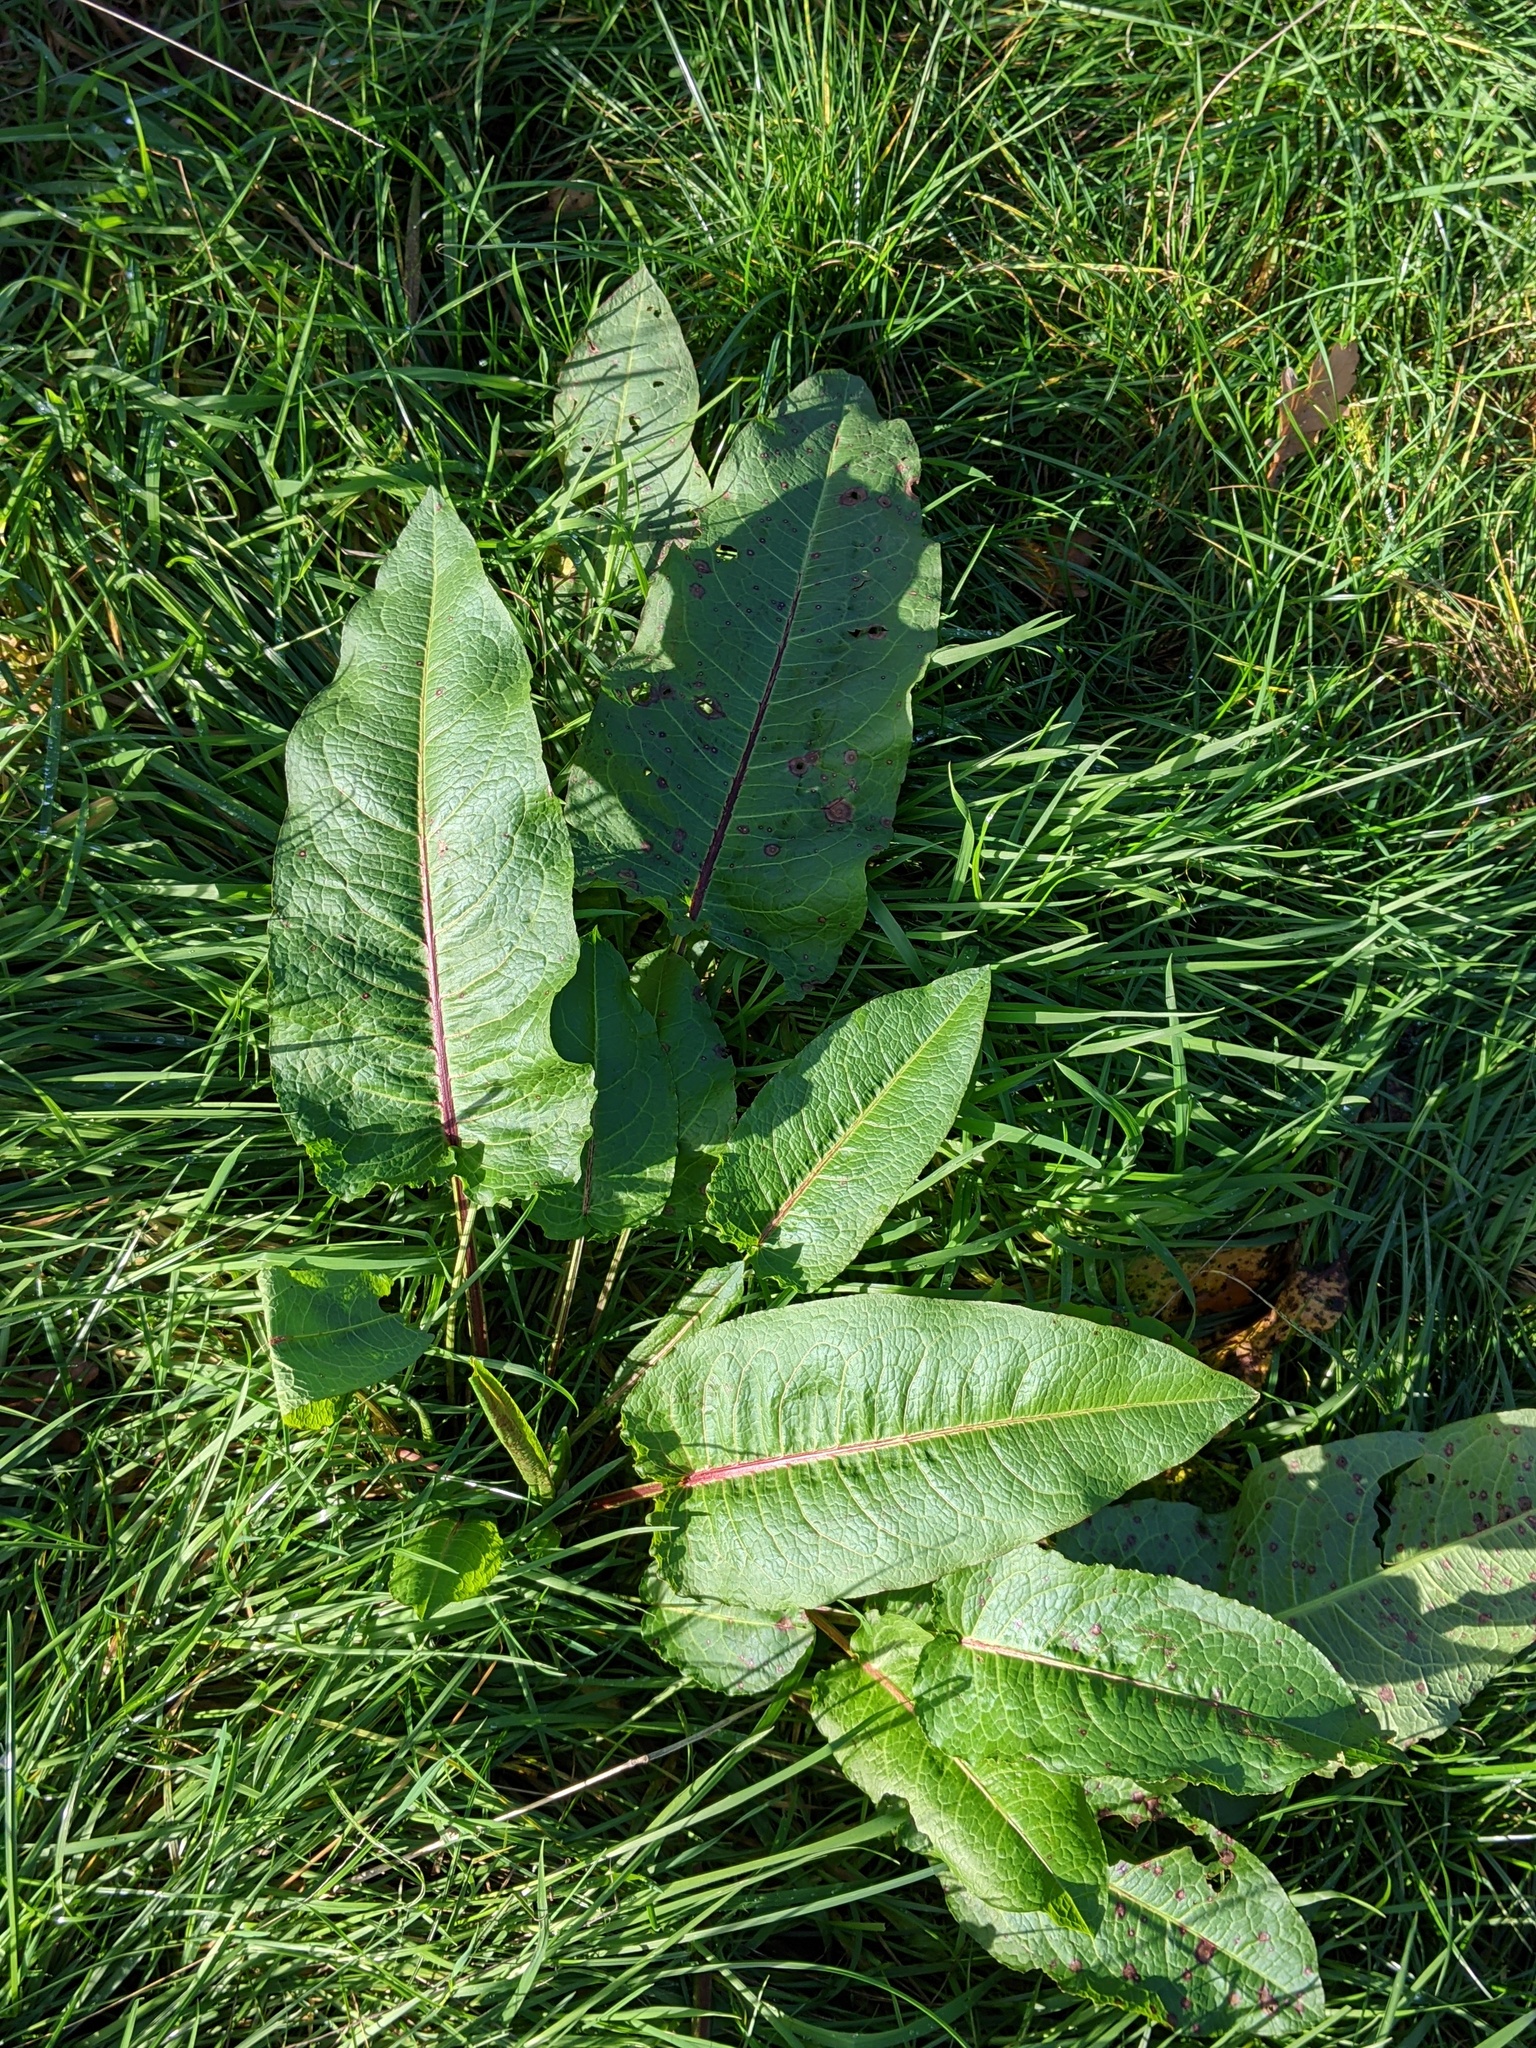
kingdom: Plantae
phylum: Tracheophyta
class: Magnoliopsida
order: Caryophyllales
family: Polygonaceae
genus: Rumex
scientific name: Rumex obtusifolius
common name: Bitter dock
